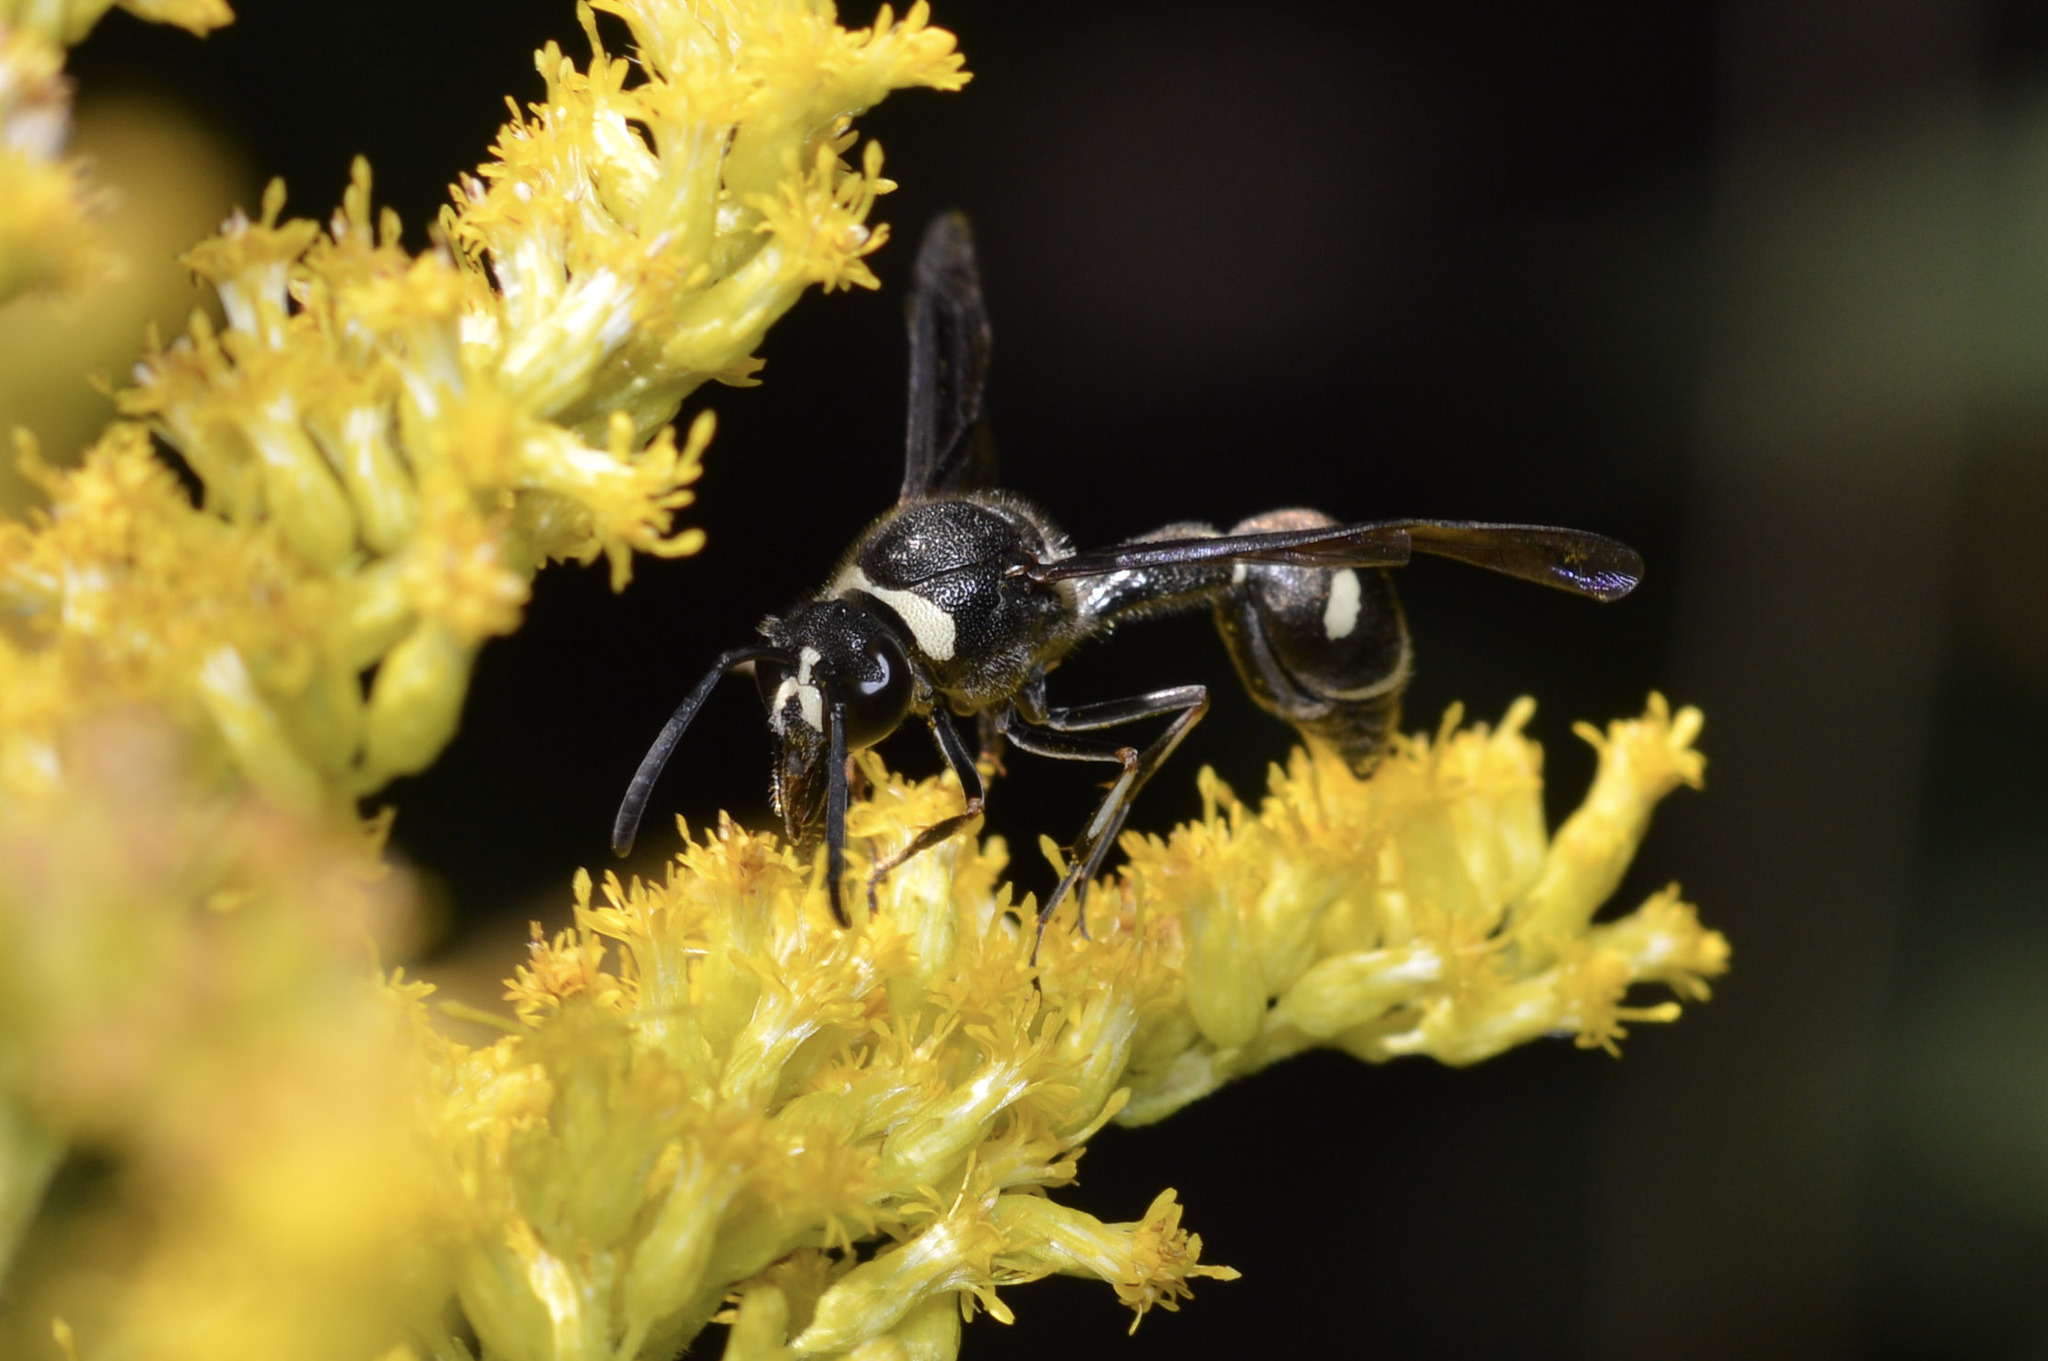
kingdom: Animalia
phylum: Arthropoda
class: Insecta
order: Hymenoptera
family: Vespidae
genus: Eumenes
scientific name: Eumenes fraternus
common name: Fraternal potter wasp
